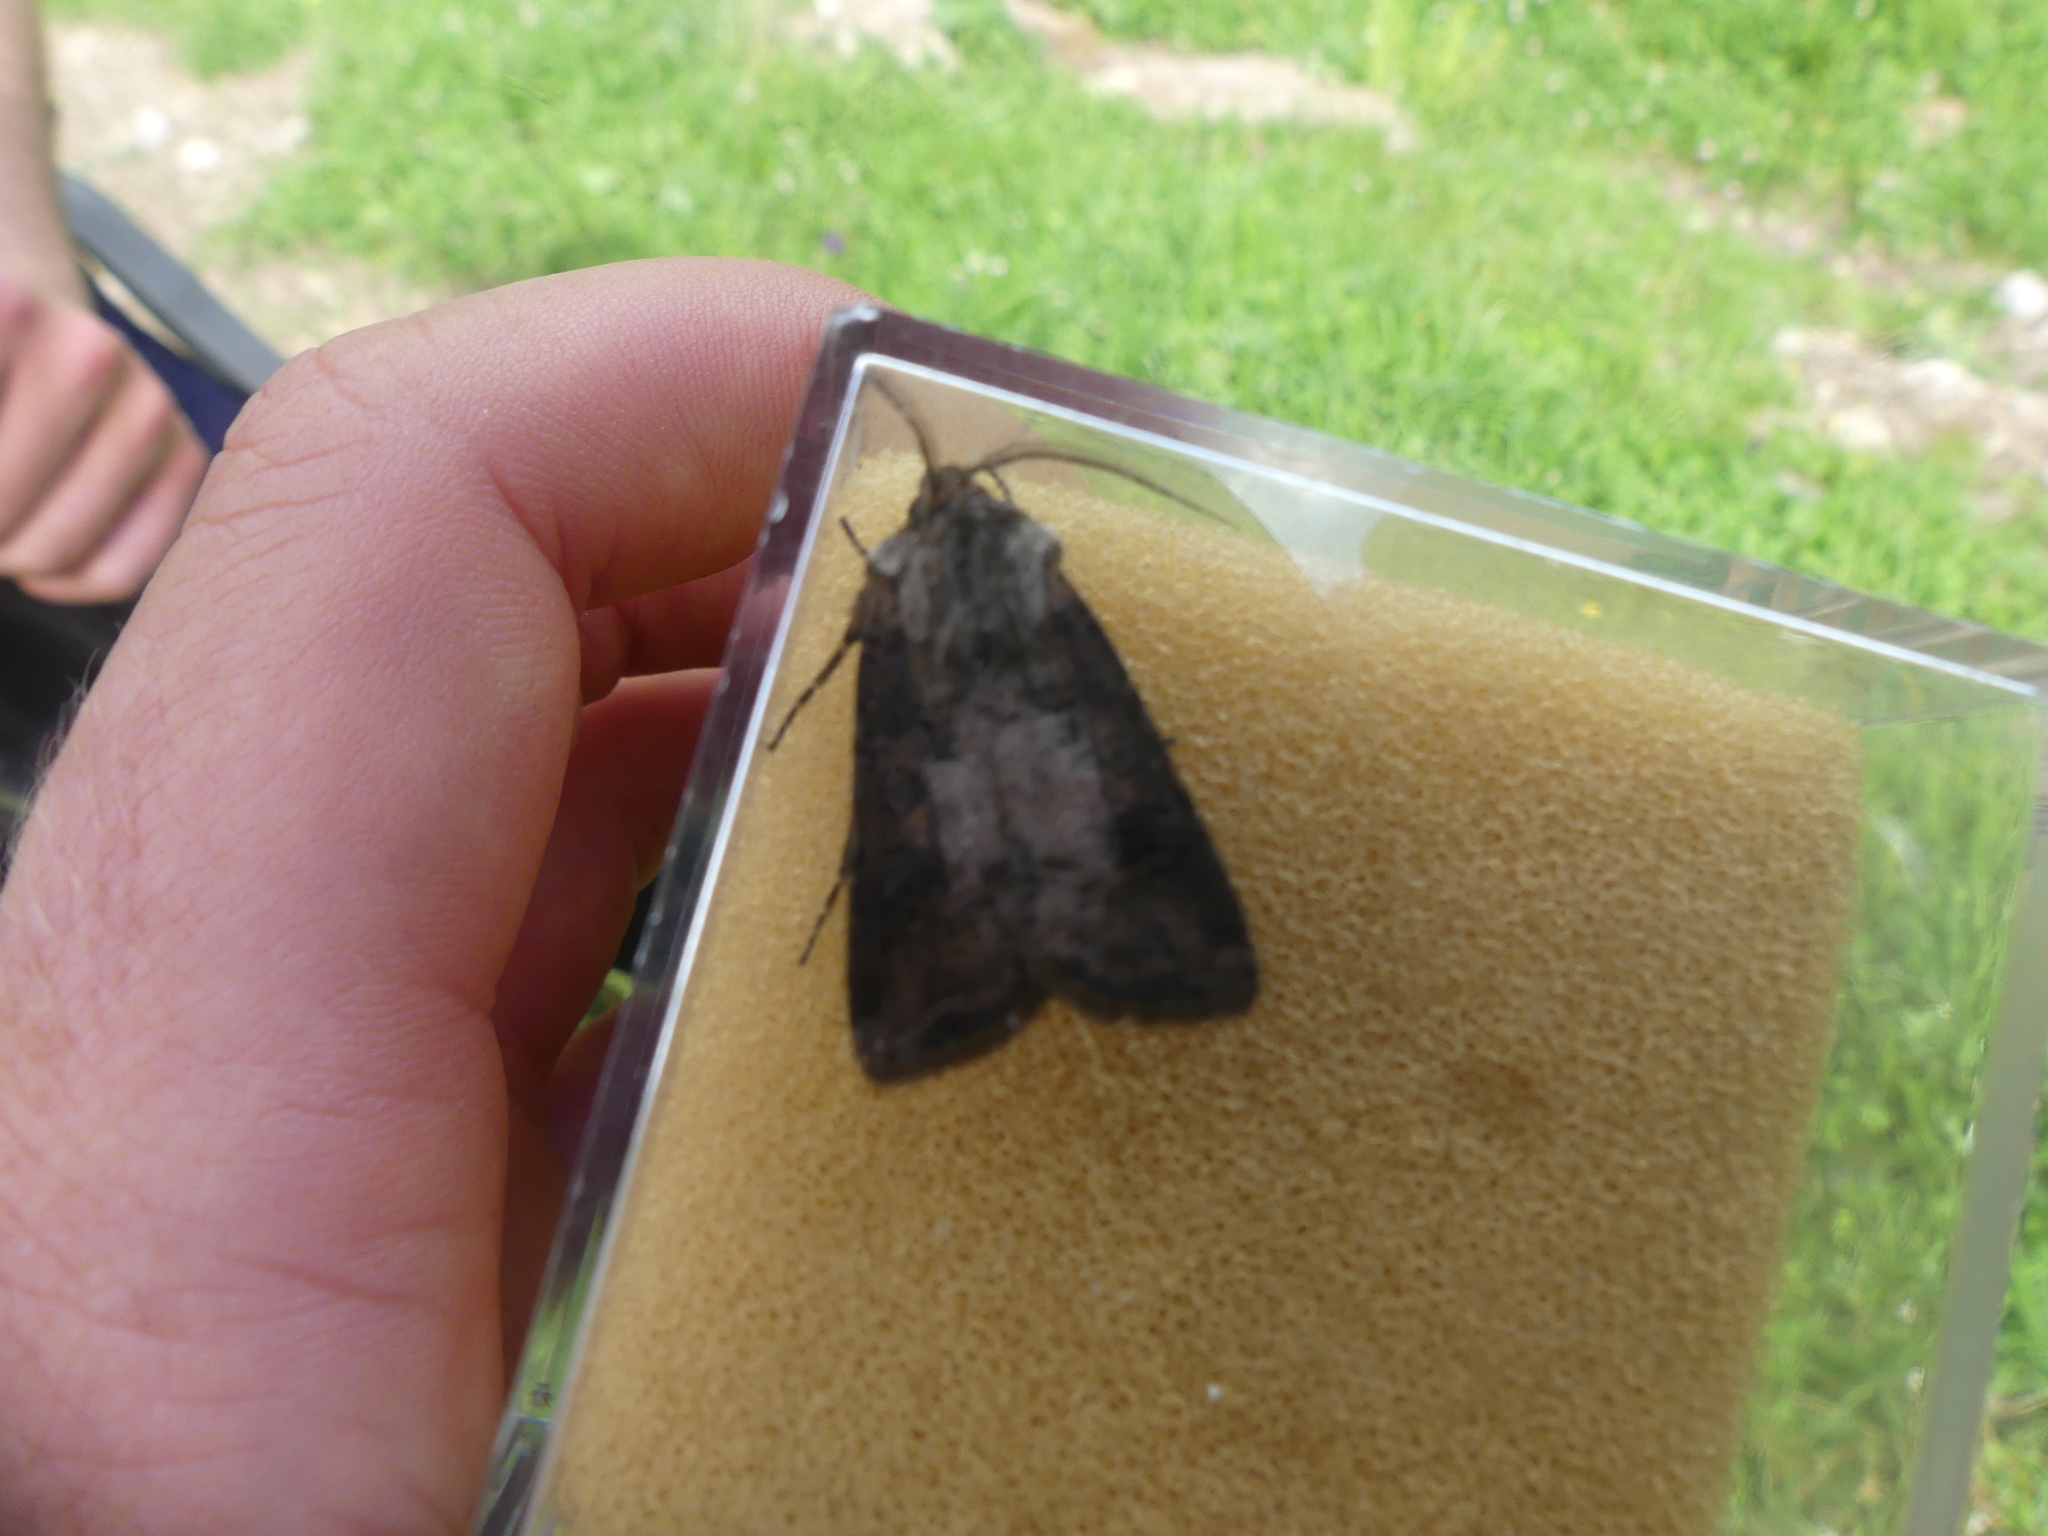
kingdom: Animalia
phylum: Arthropoda
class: Insecta
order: Lepidoptera
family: Noctuidae
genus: Agrotis
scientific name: Agrotis clavis
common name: Heart and club
